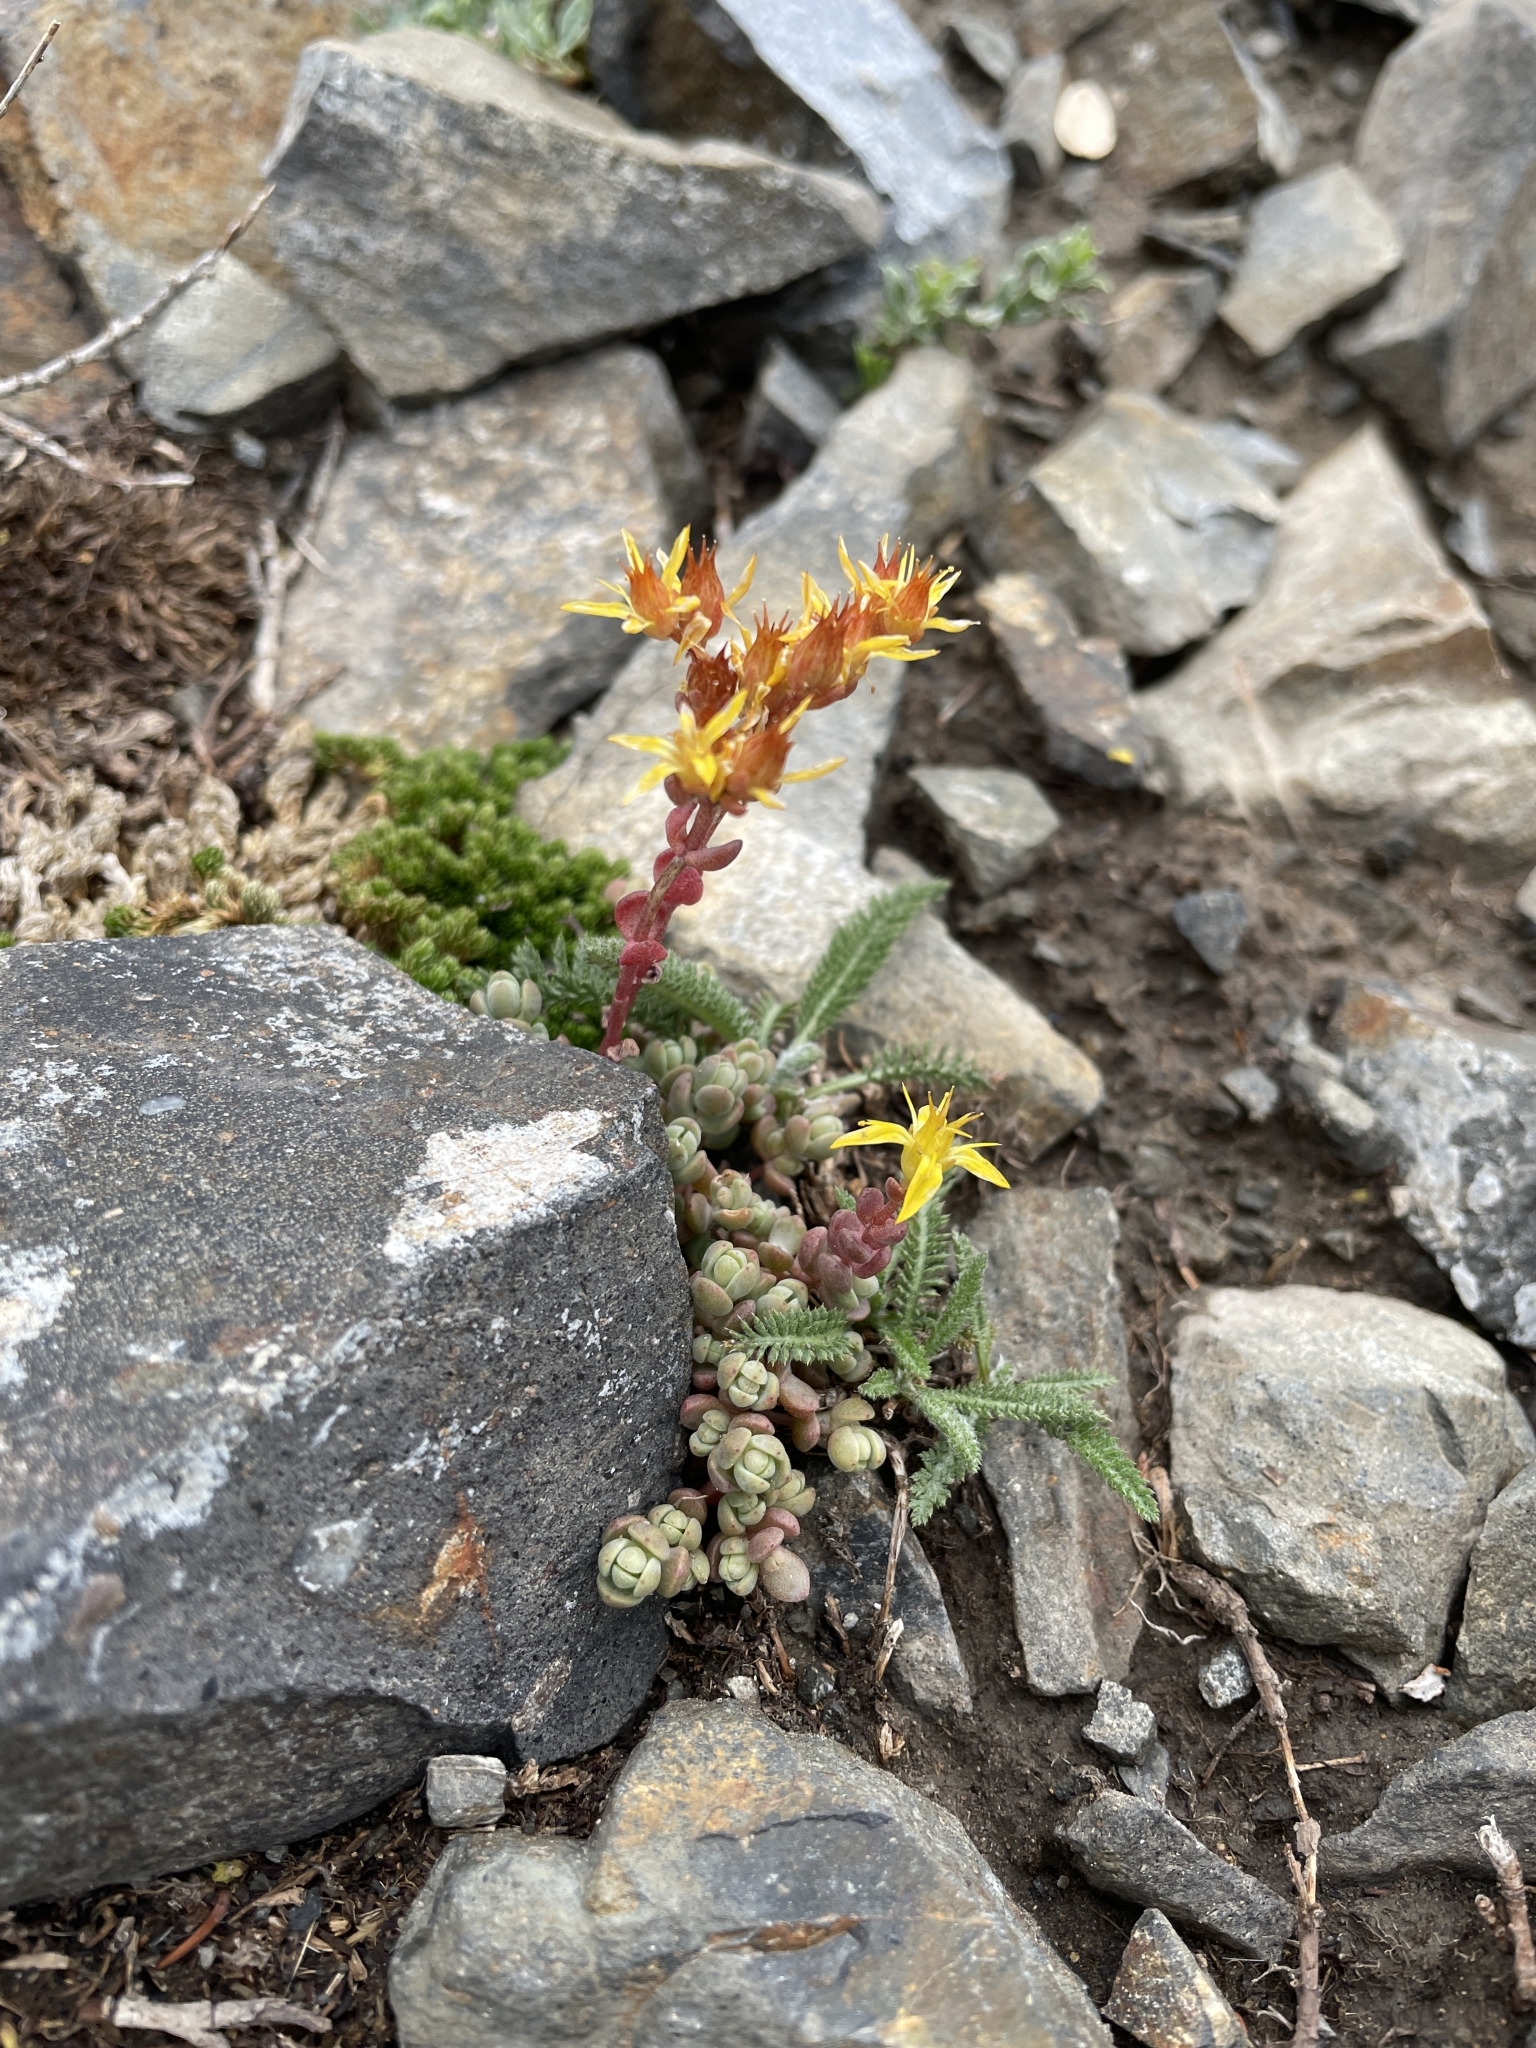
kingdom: Plantae
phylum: Tracheophyta
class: Magnoliopsida
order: Saxifragales
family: Crassulaceae
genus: Sedum
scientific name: Sedum debile
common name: Weak-stem stonecrop
